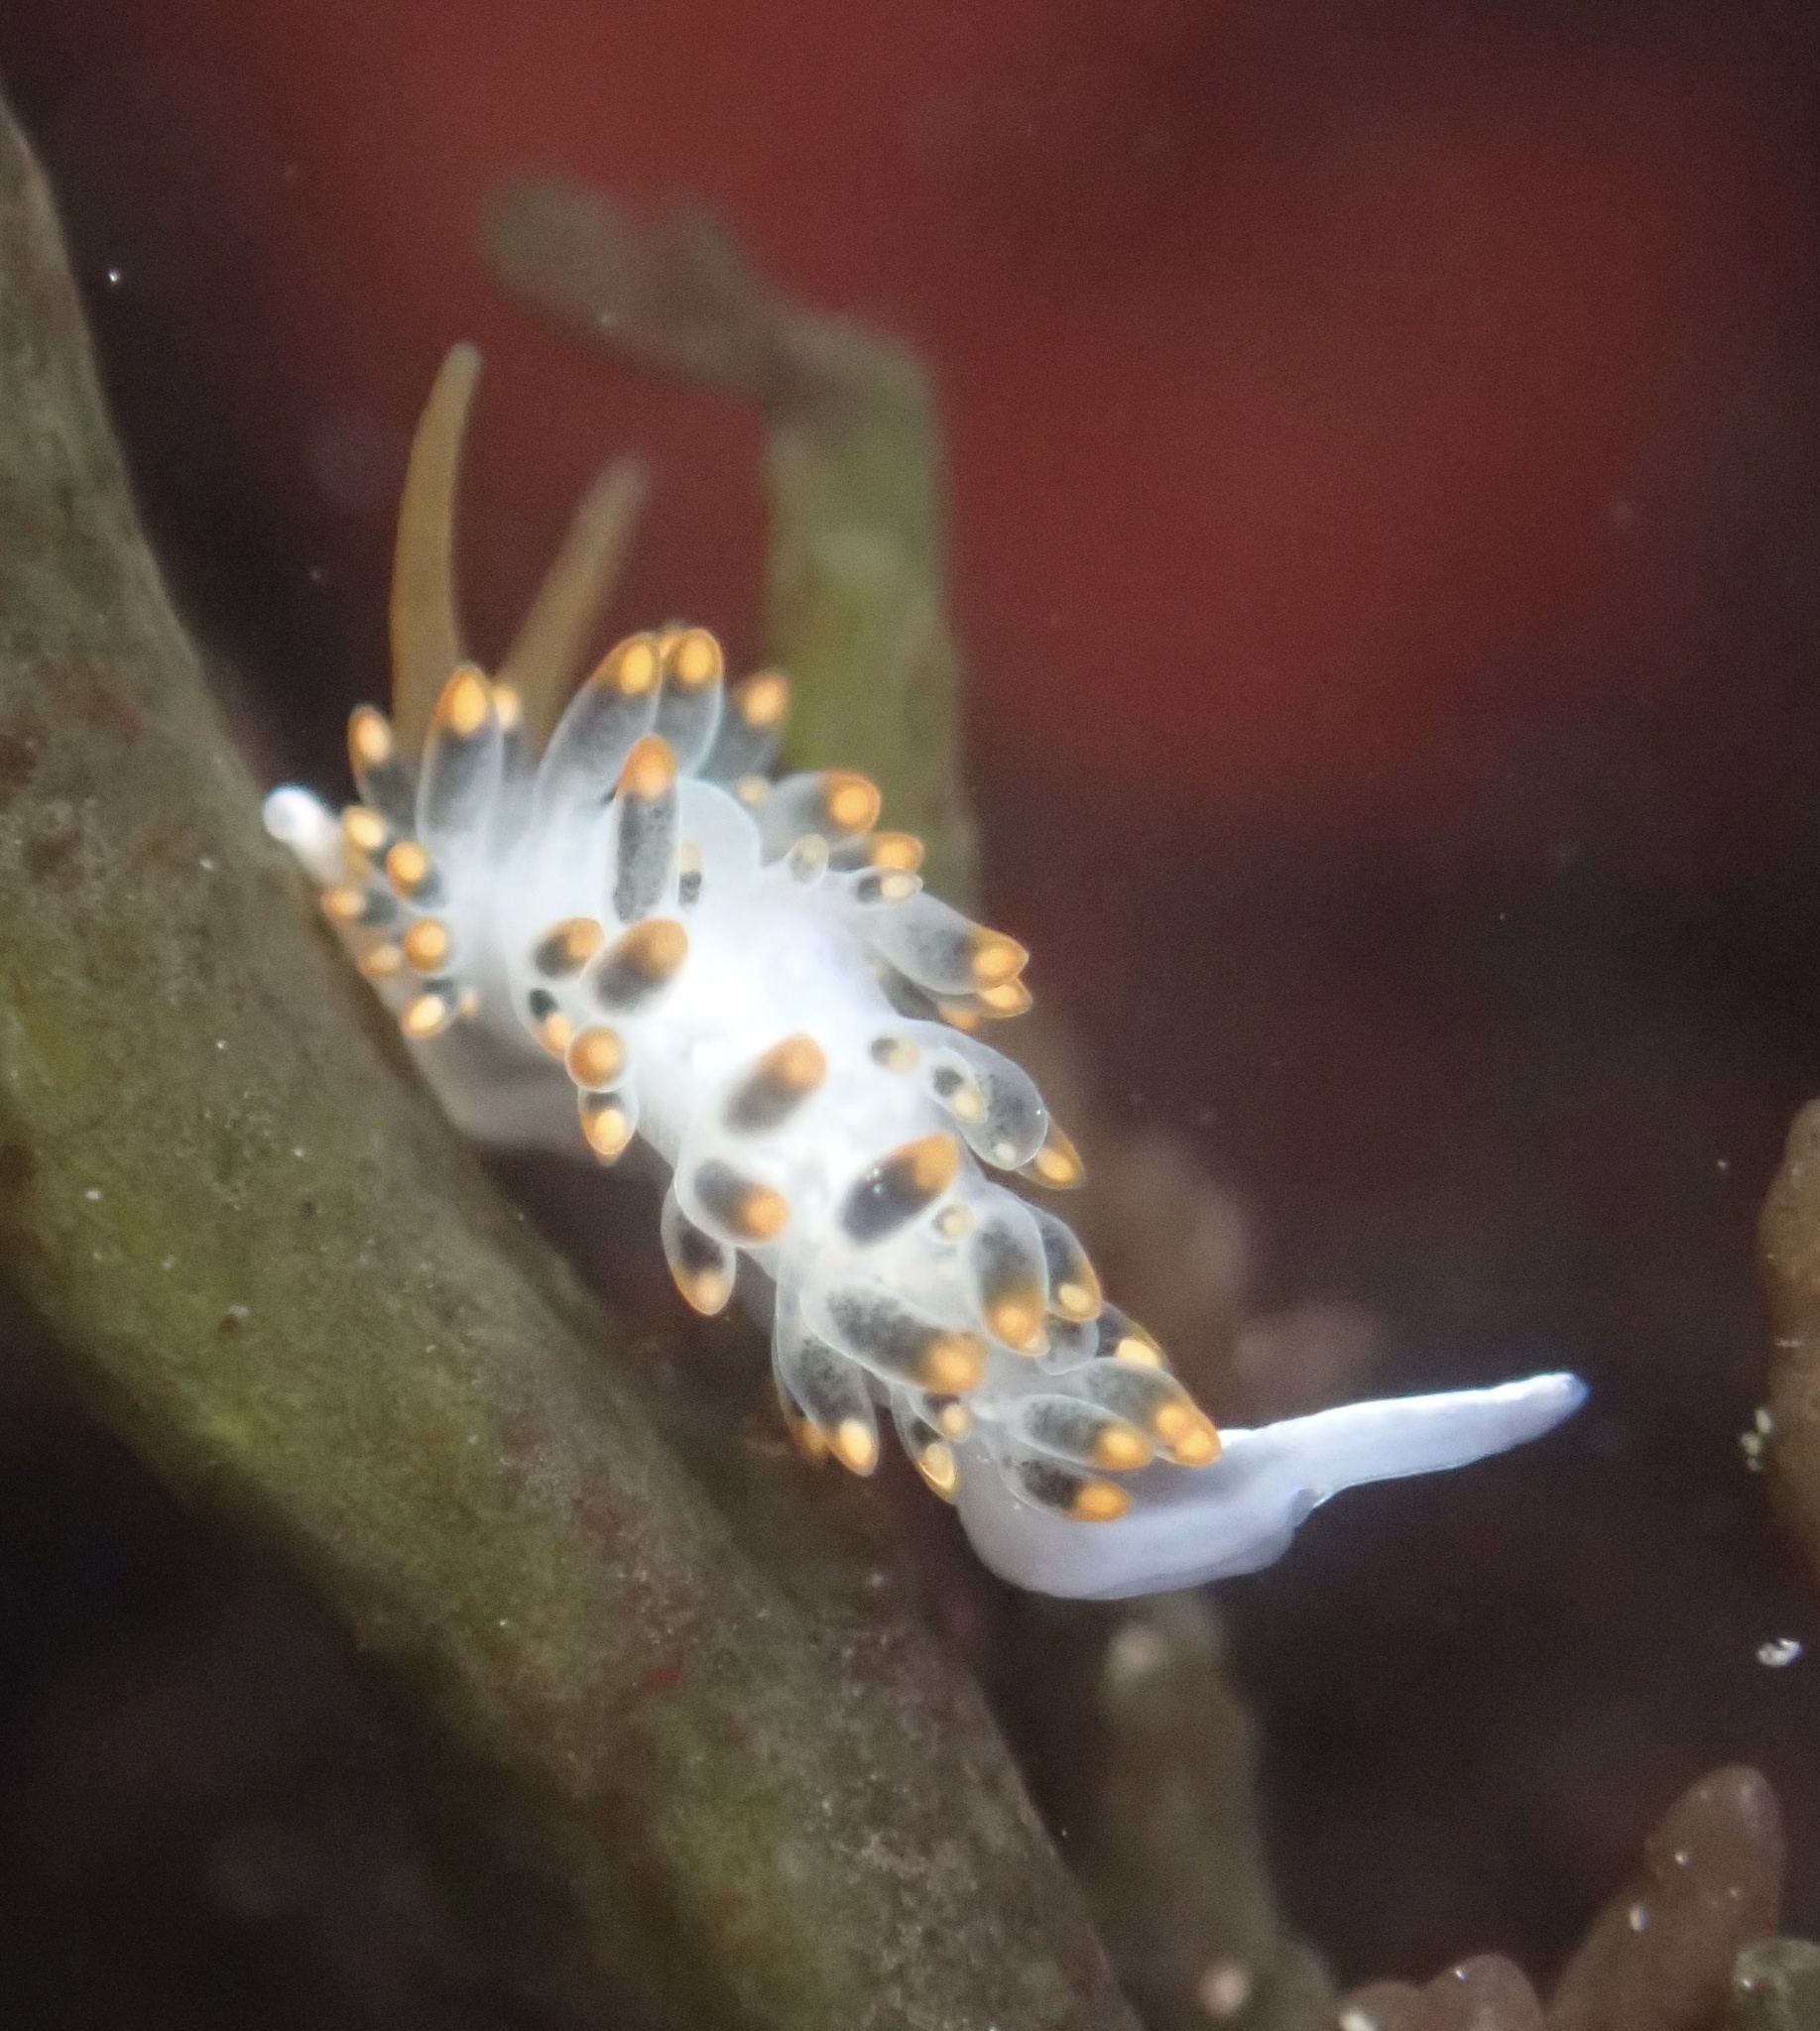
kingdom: Animalia
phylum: Mollusca
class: Gastropoda
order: Nudibranchia
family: Trinchesiidae
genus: Diaphoreolis
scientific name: Diaphoreolis lagunae
